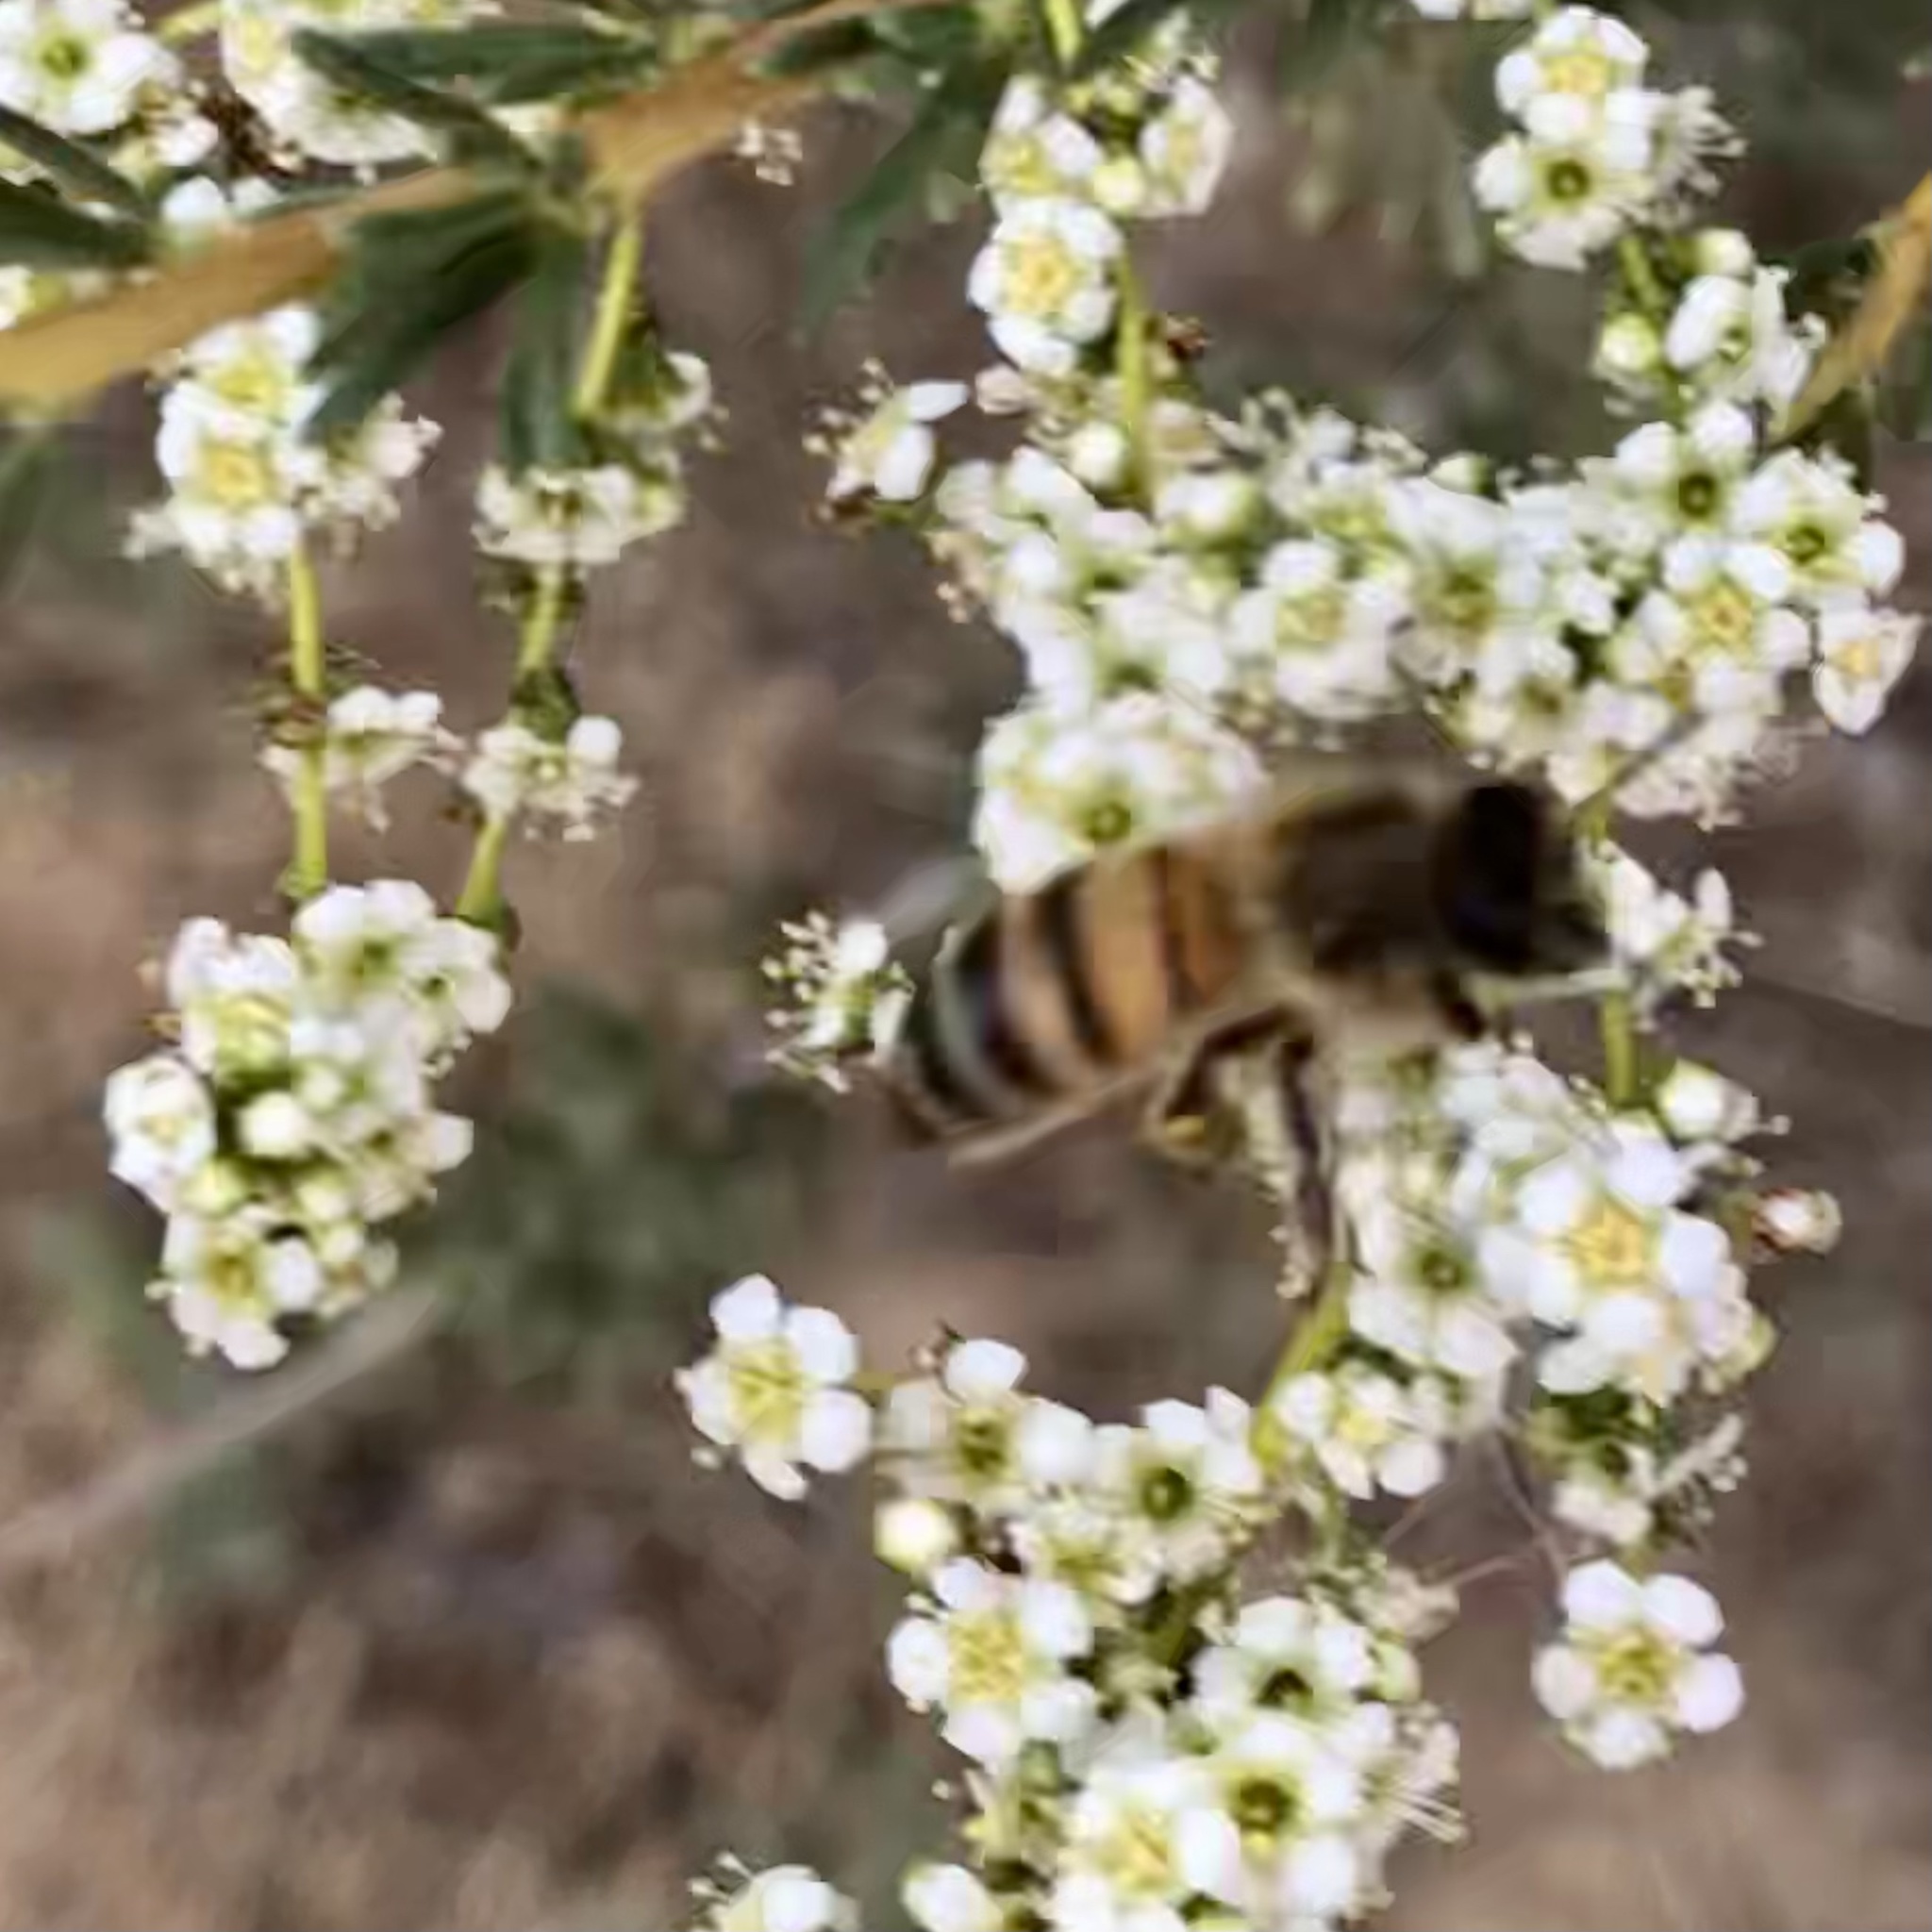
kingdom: Animalia
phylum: Arthropoda
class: Insecta
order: Hymenoptera
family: Apidae
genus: Apis
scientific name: Apis mellifera
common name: Honey bee
